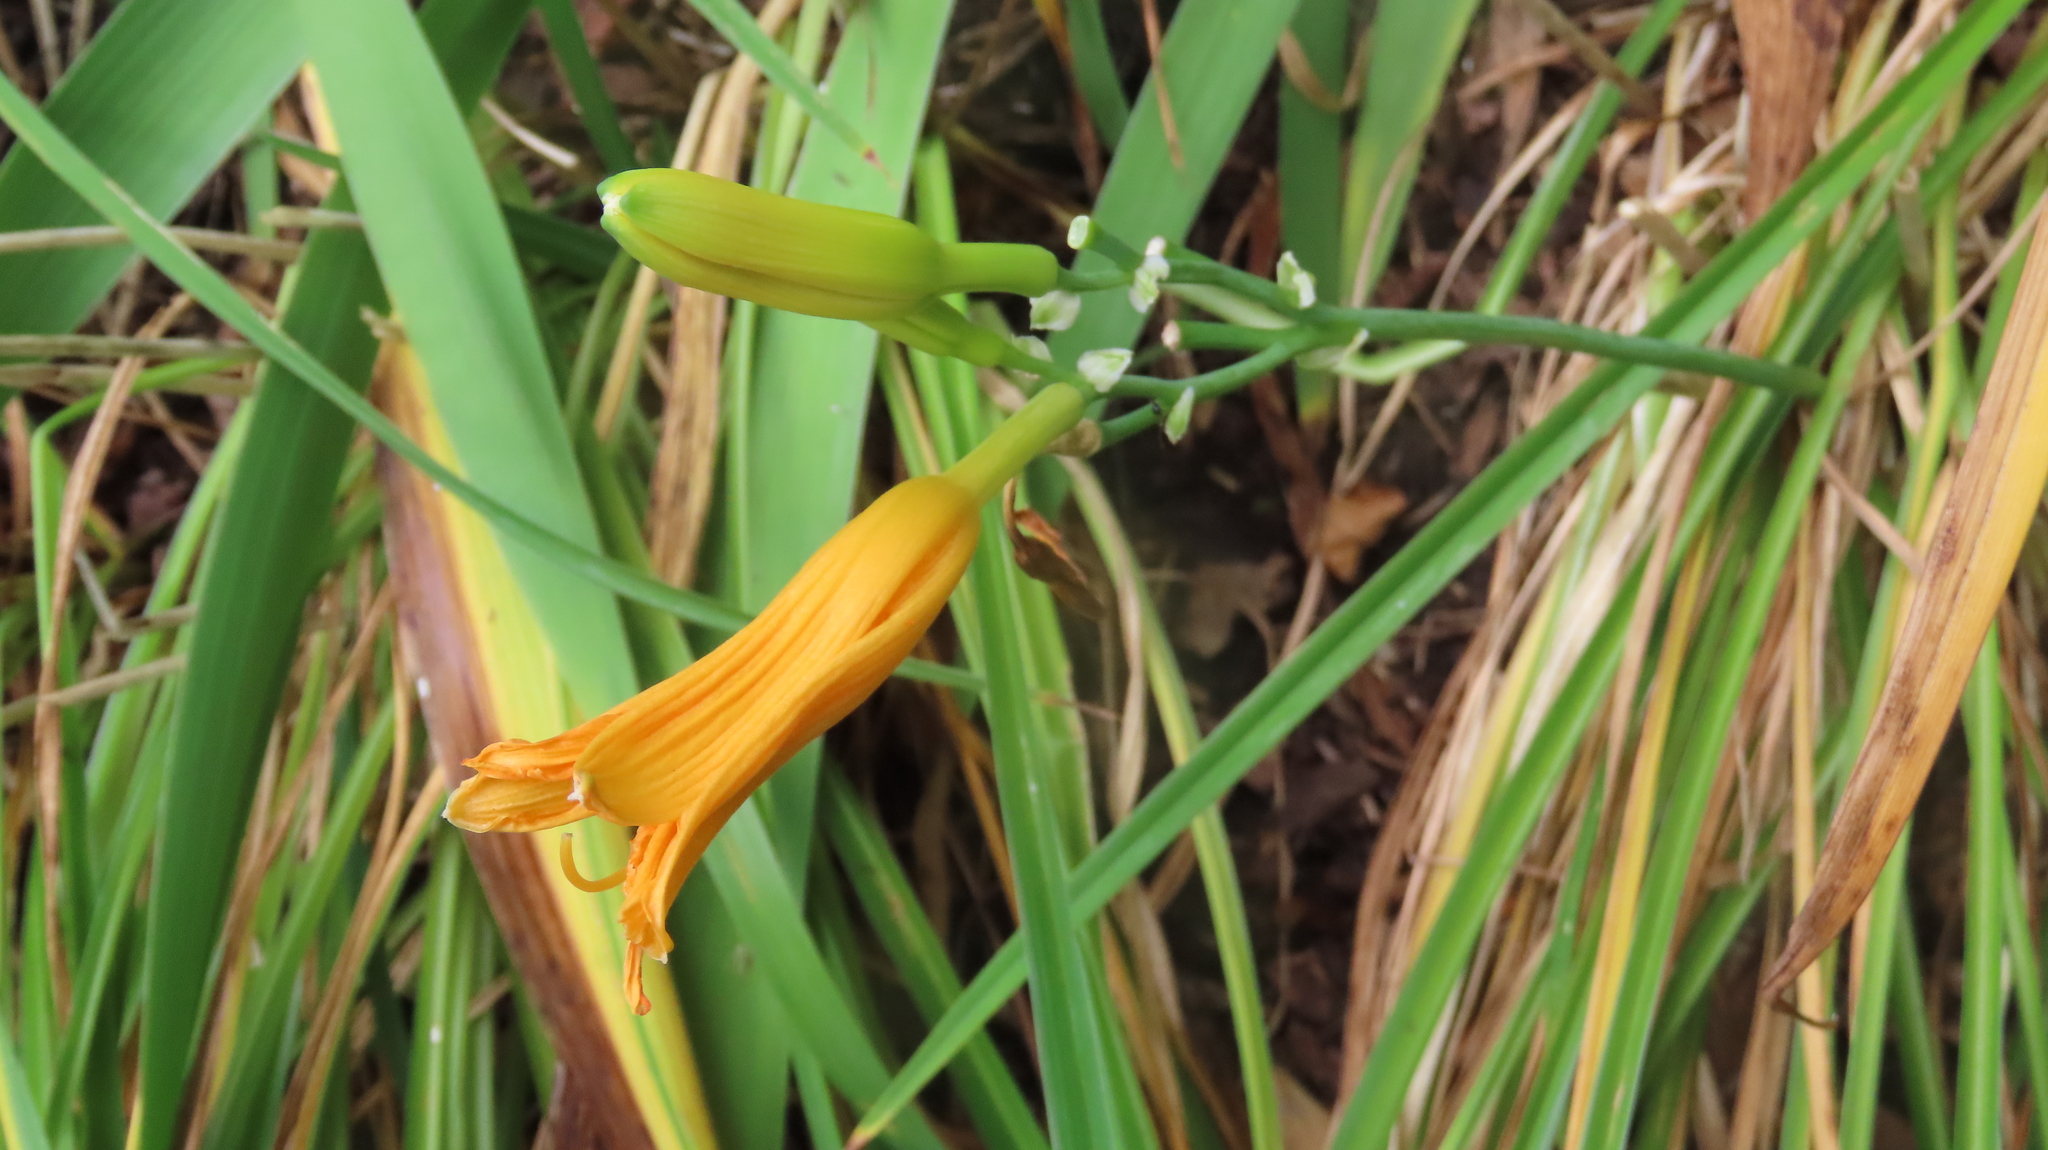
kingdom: Plantae
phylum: Tracheophyta
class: Liliopsida
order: Asparagales
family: Asphodelaceae
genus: Hemerocallis
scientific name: Hemerocallis fulva
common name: Orange day-lily
